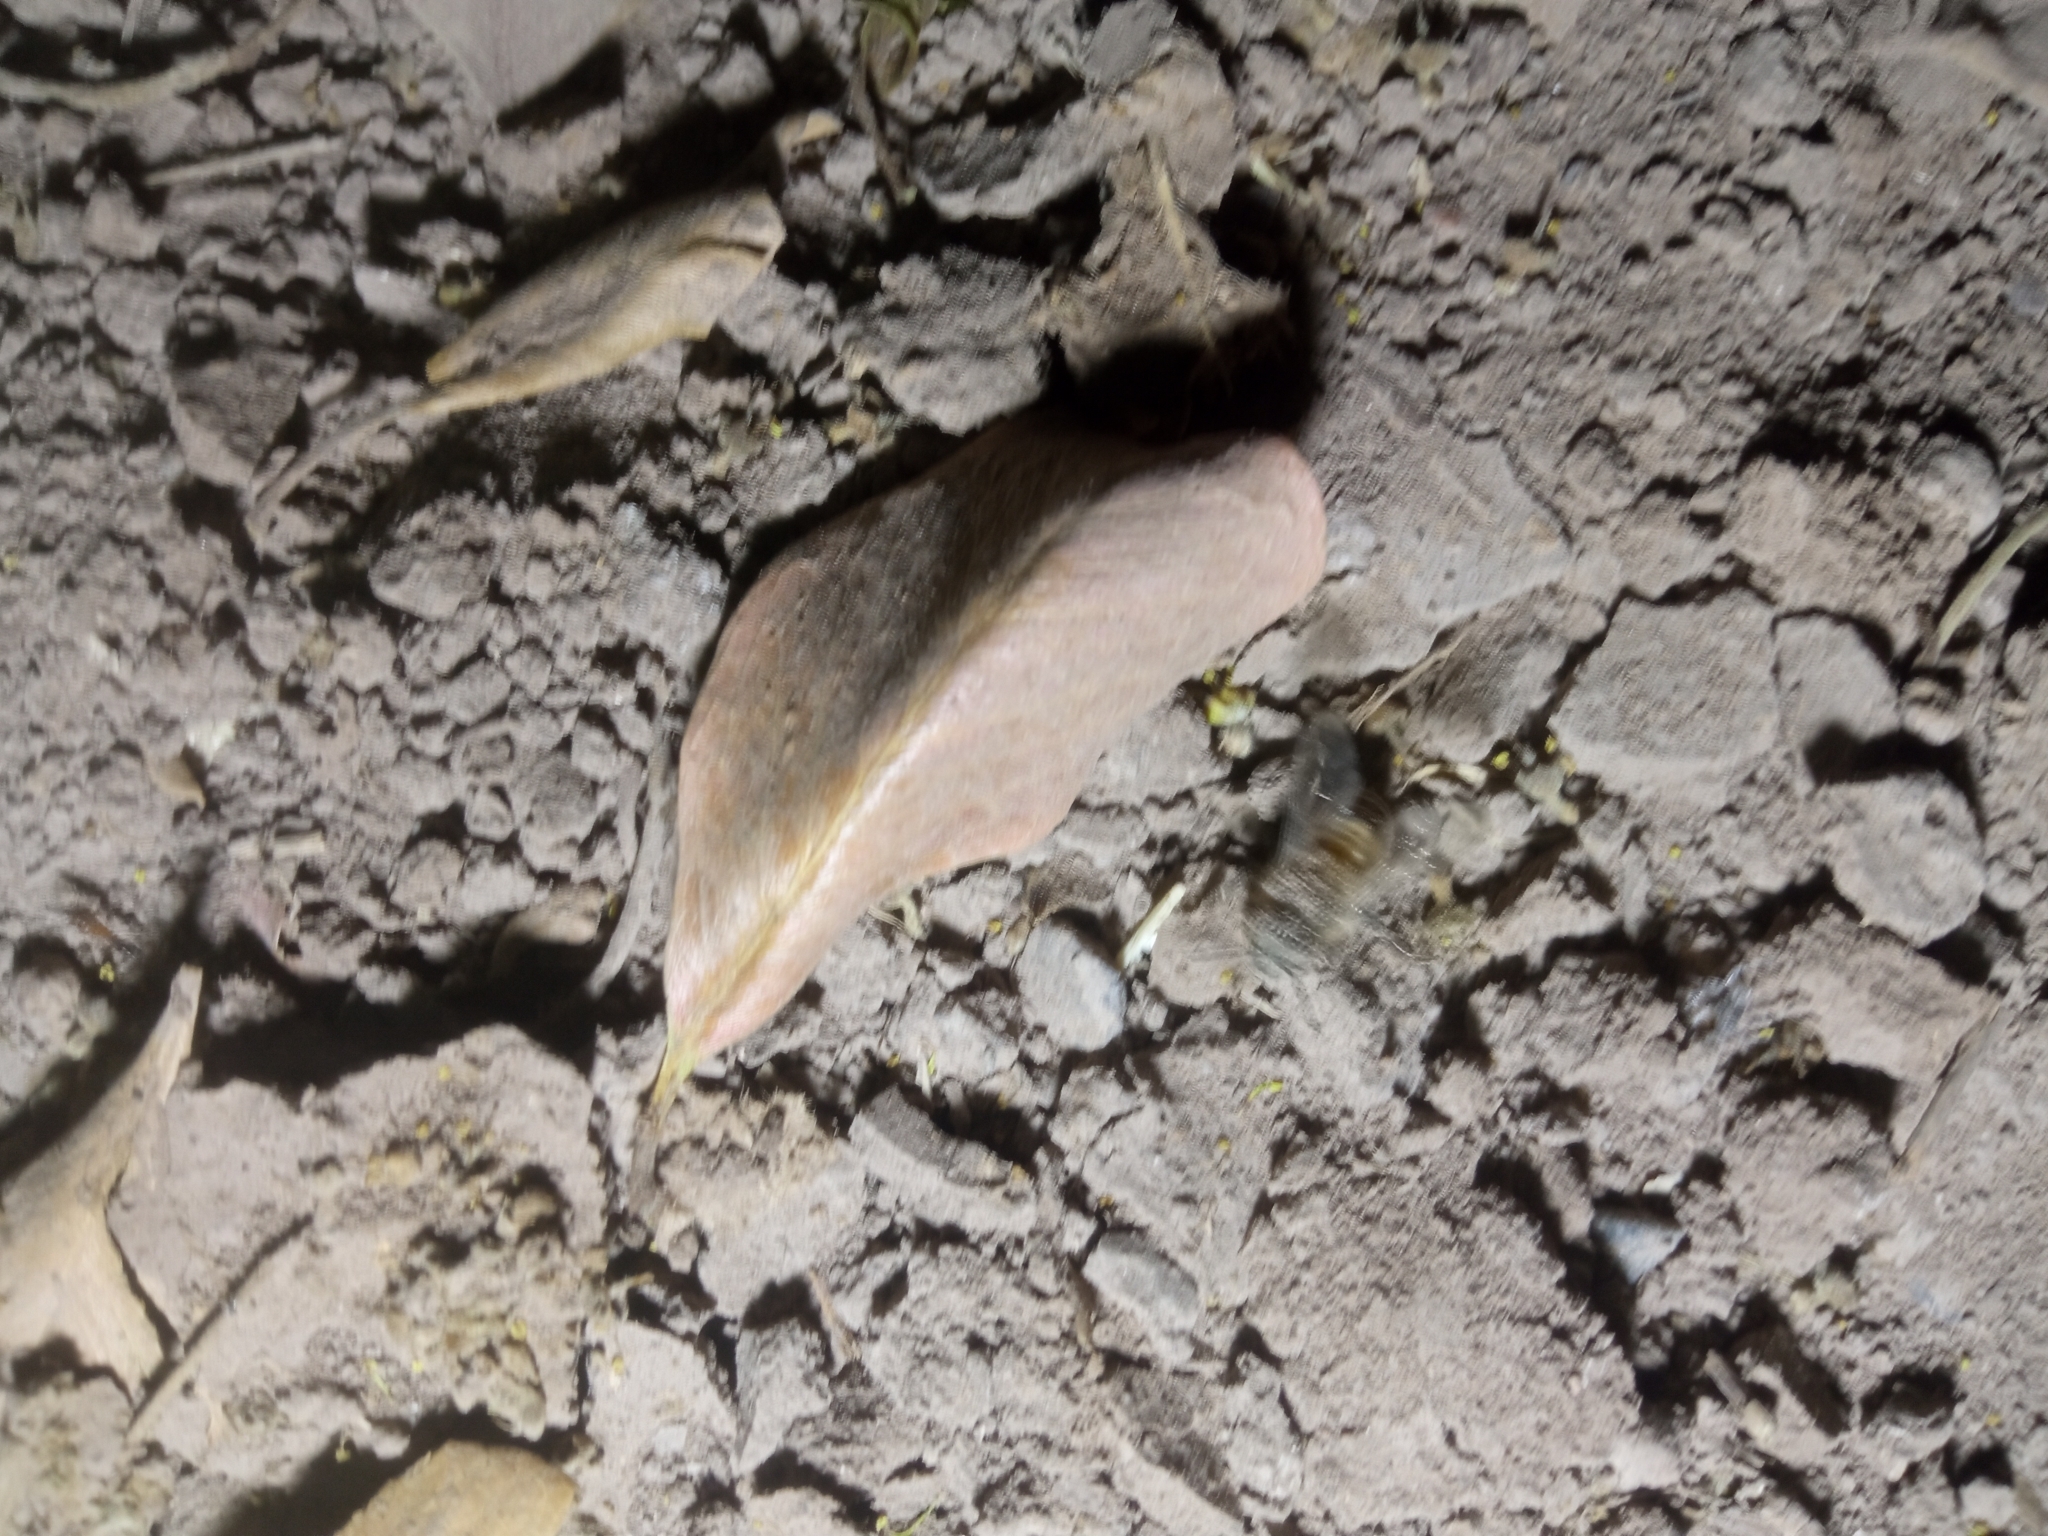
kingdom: Animalia
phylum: Arthropoda
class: Insecta
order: Hymenoptera
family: Apidae
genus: Apis
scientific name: Apis mellifera
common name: Honey bee
